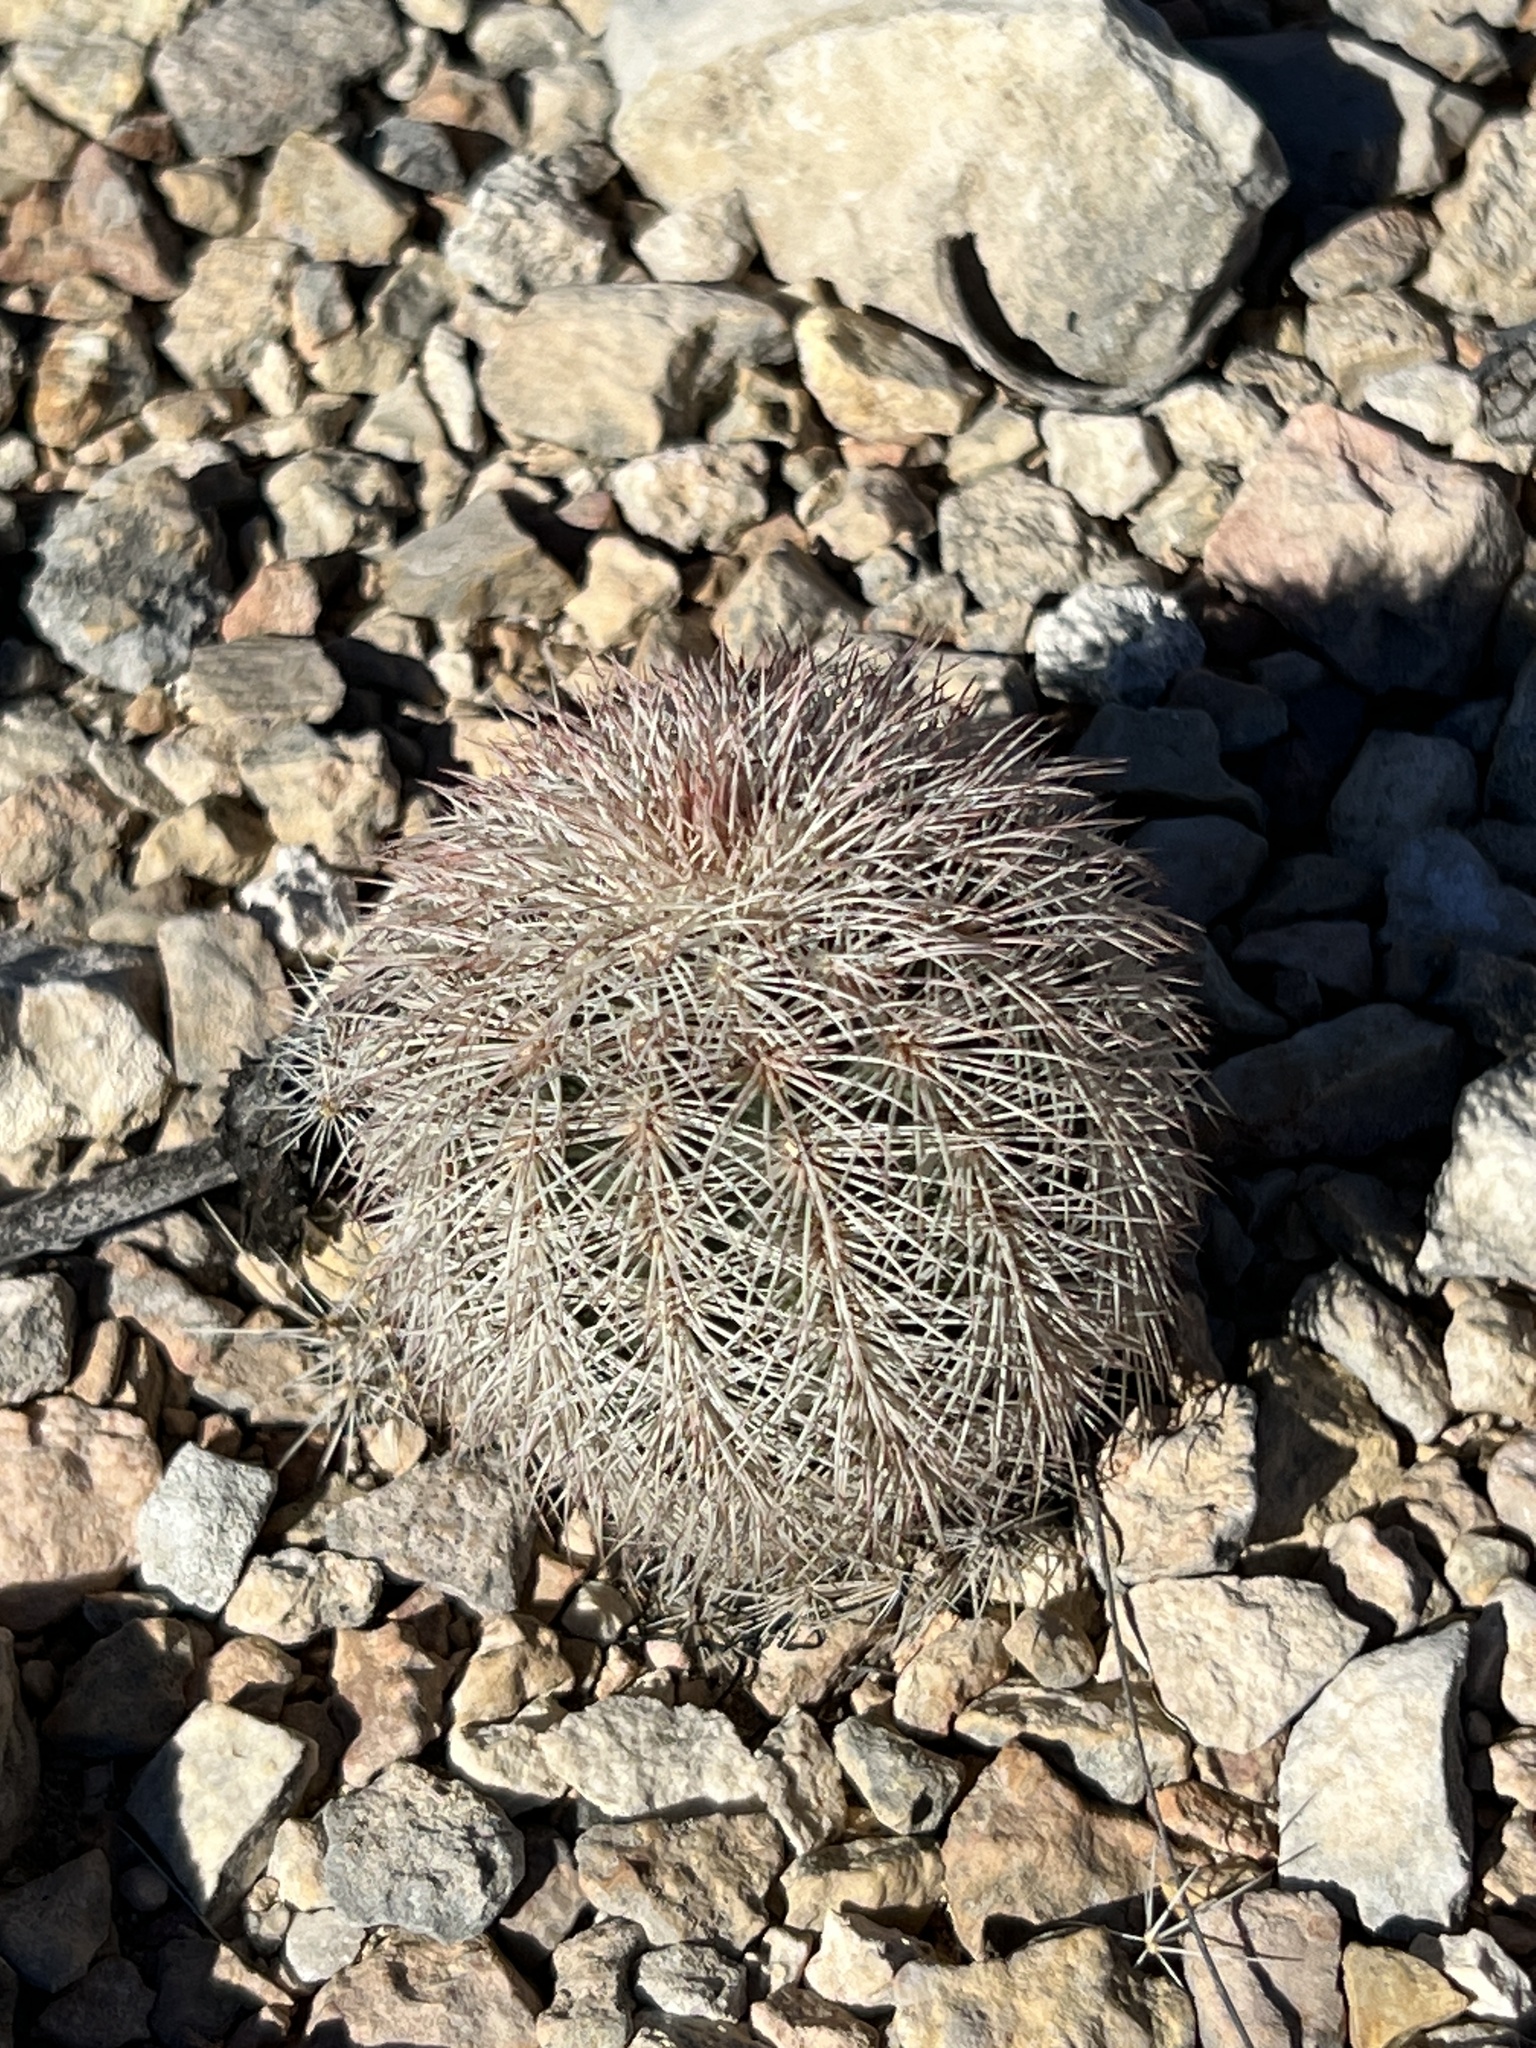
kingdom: Plantae
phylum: Tracheophyta
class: Magnoliopsida
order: Caryophyllales
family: Cactaceae
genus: Echinocereus
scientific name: Echinocereus dasyacanthus
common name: Spiny hedgehog cactus
